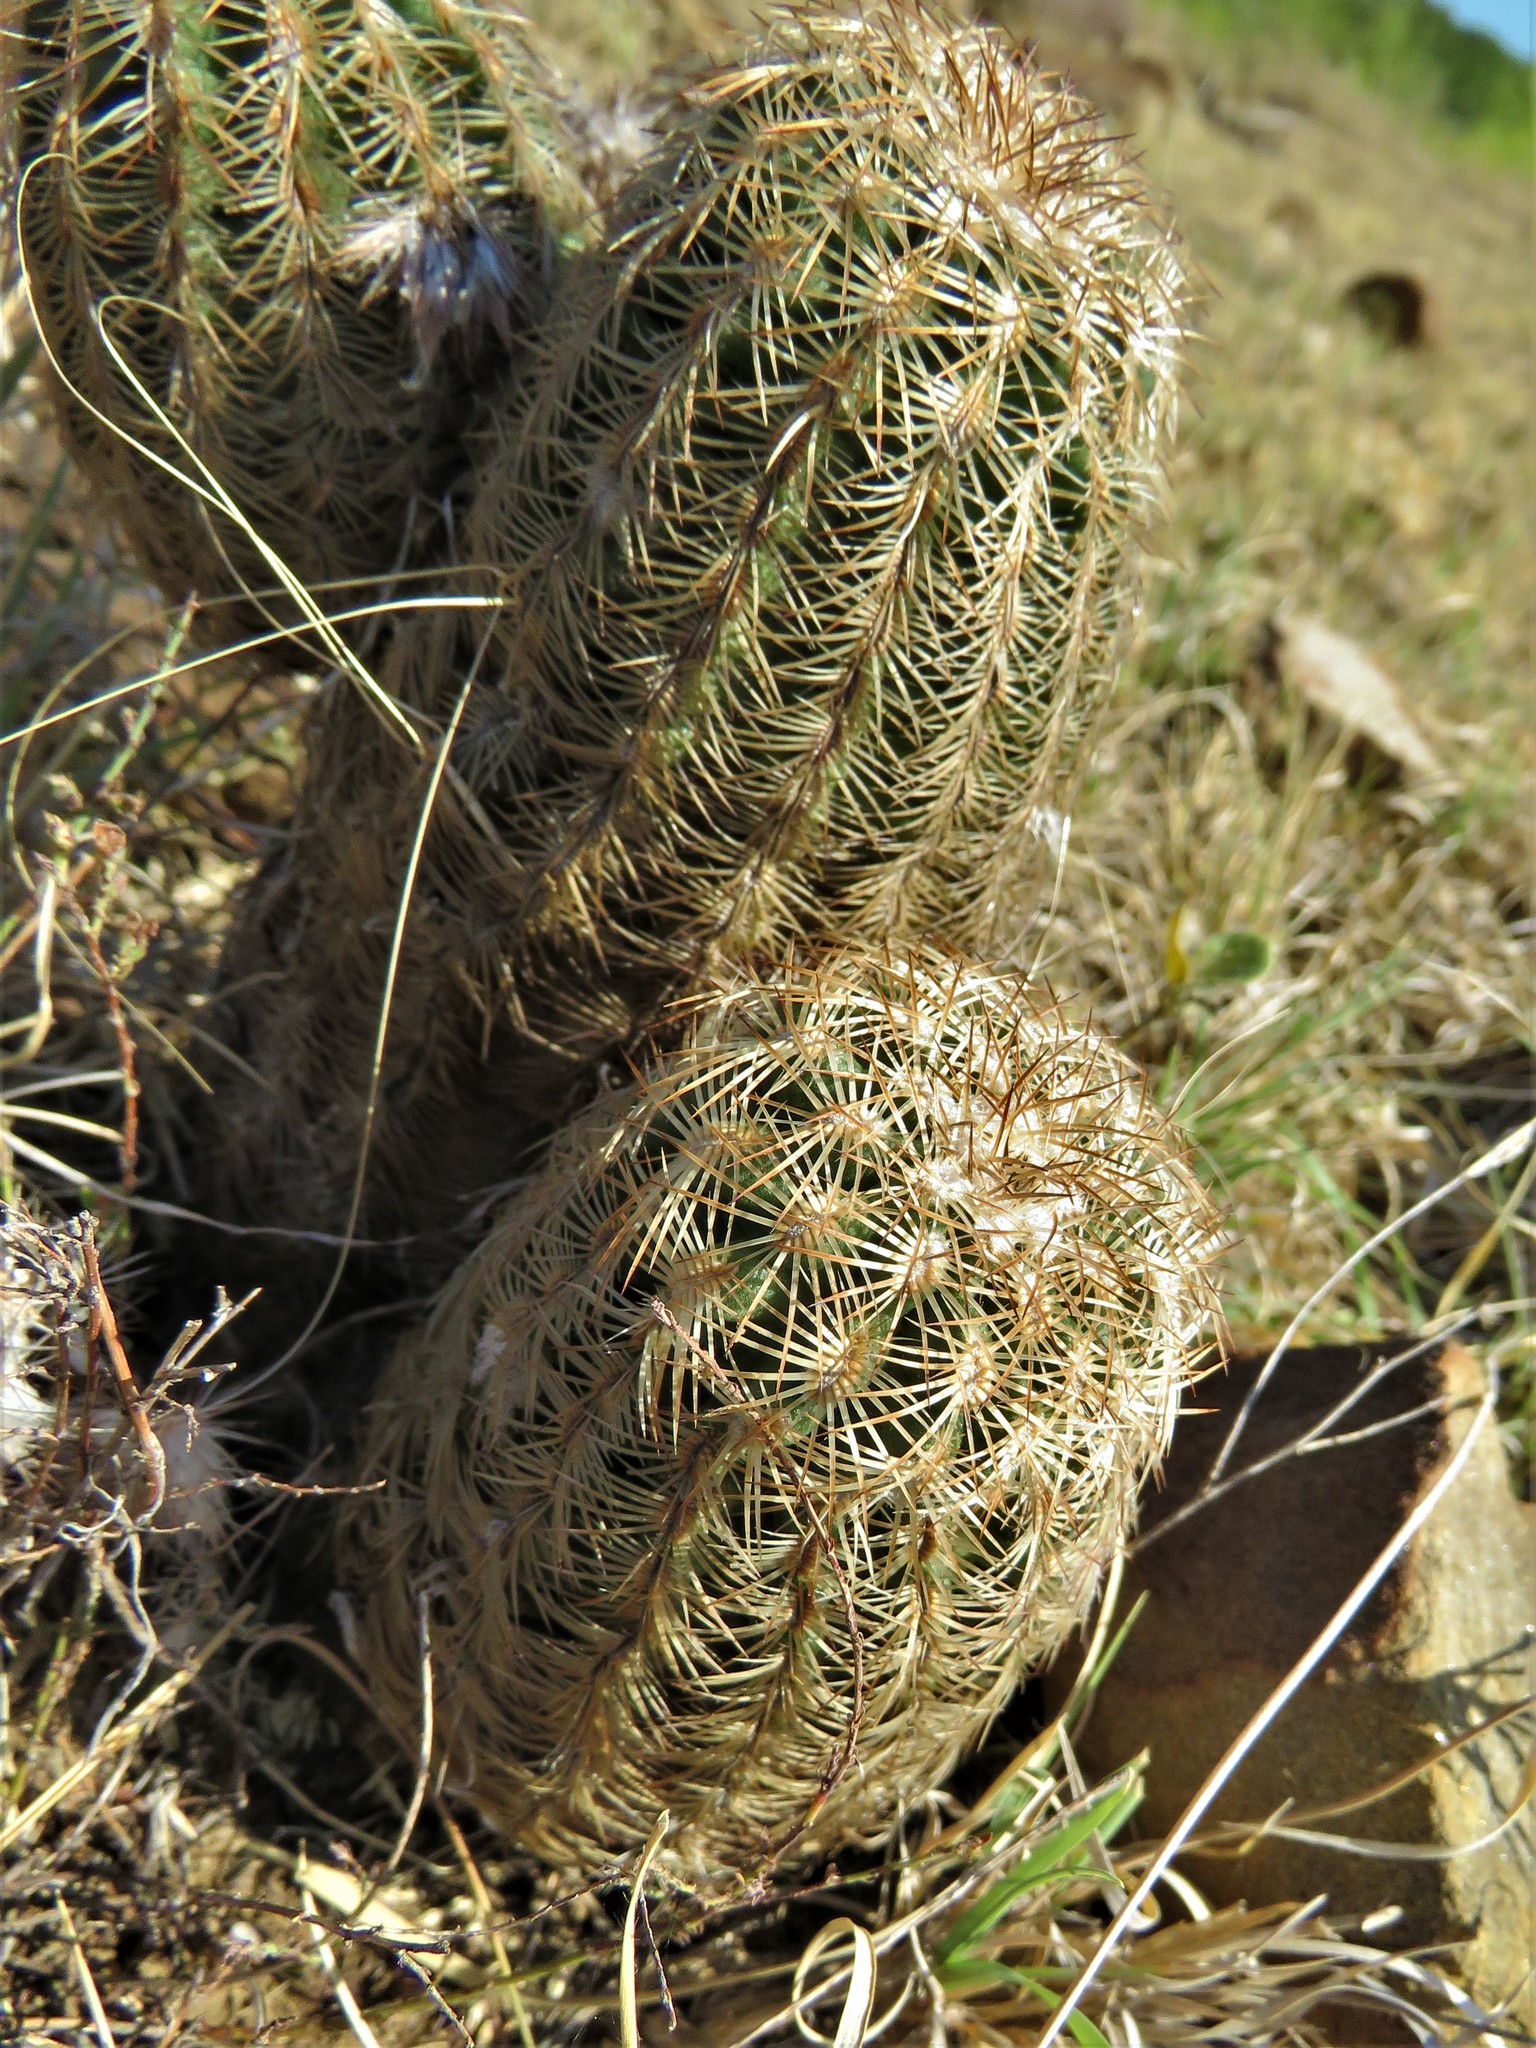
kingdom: Plantae
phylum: Tracheophyta
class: Magnoliopsida
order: Caryophyllales
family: Cactaceae
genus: Echinocereus
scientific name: Echinocereus reichenbachii
